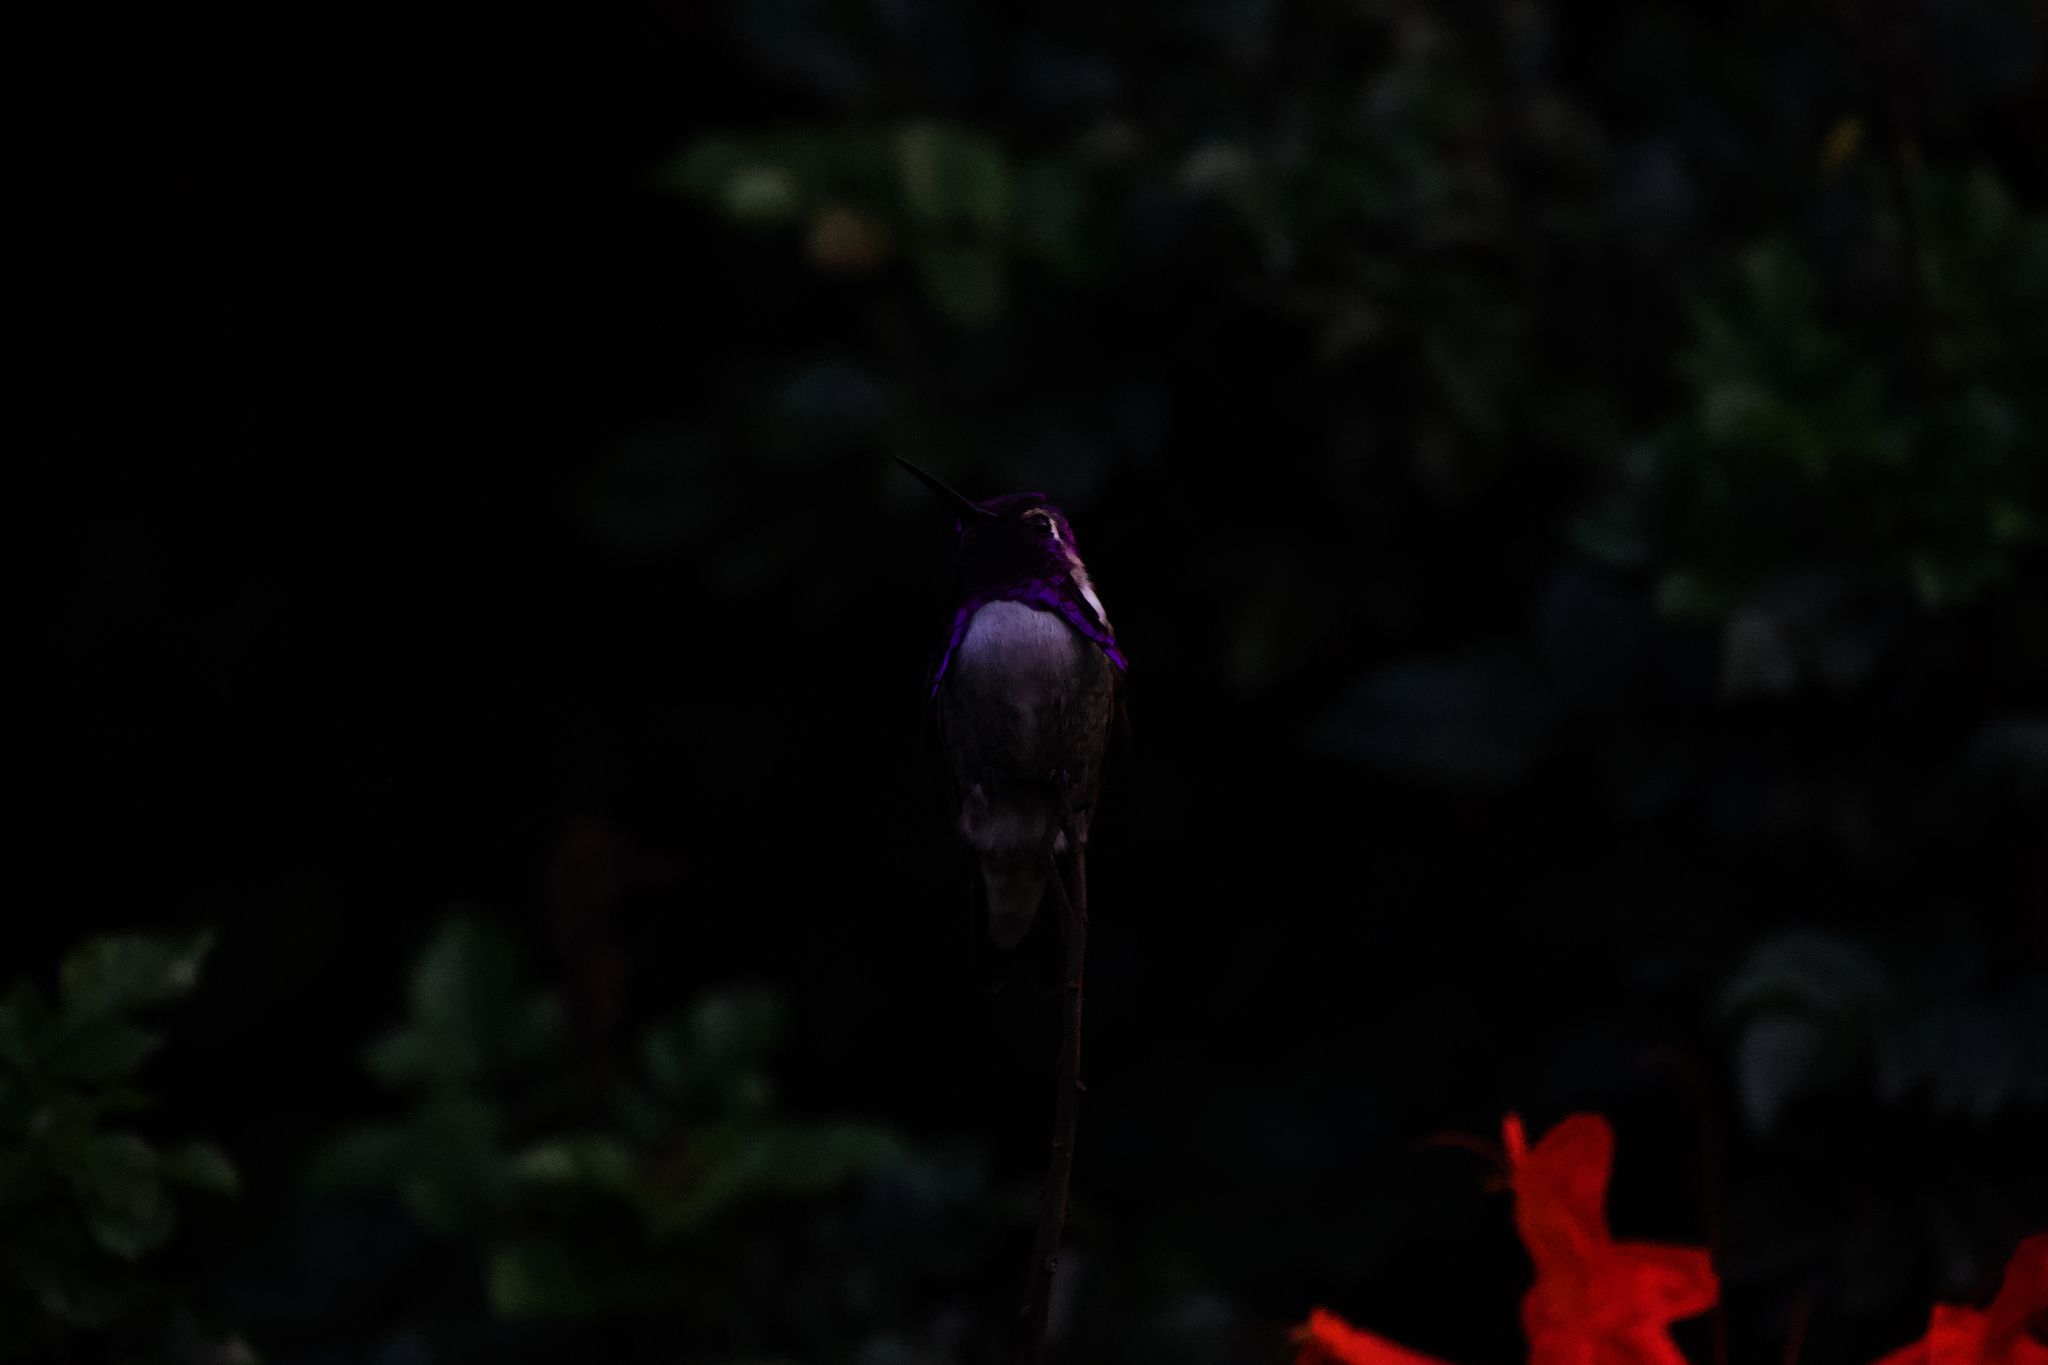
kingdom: Animalia
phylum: Chordata
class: Aves
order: Apodiformes
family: Trochilidae
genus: Calypte
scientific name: Calypte costae
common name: Costa's hummingbird
